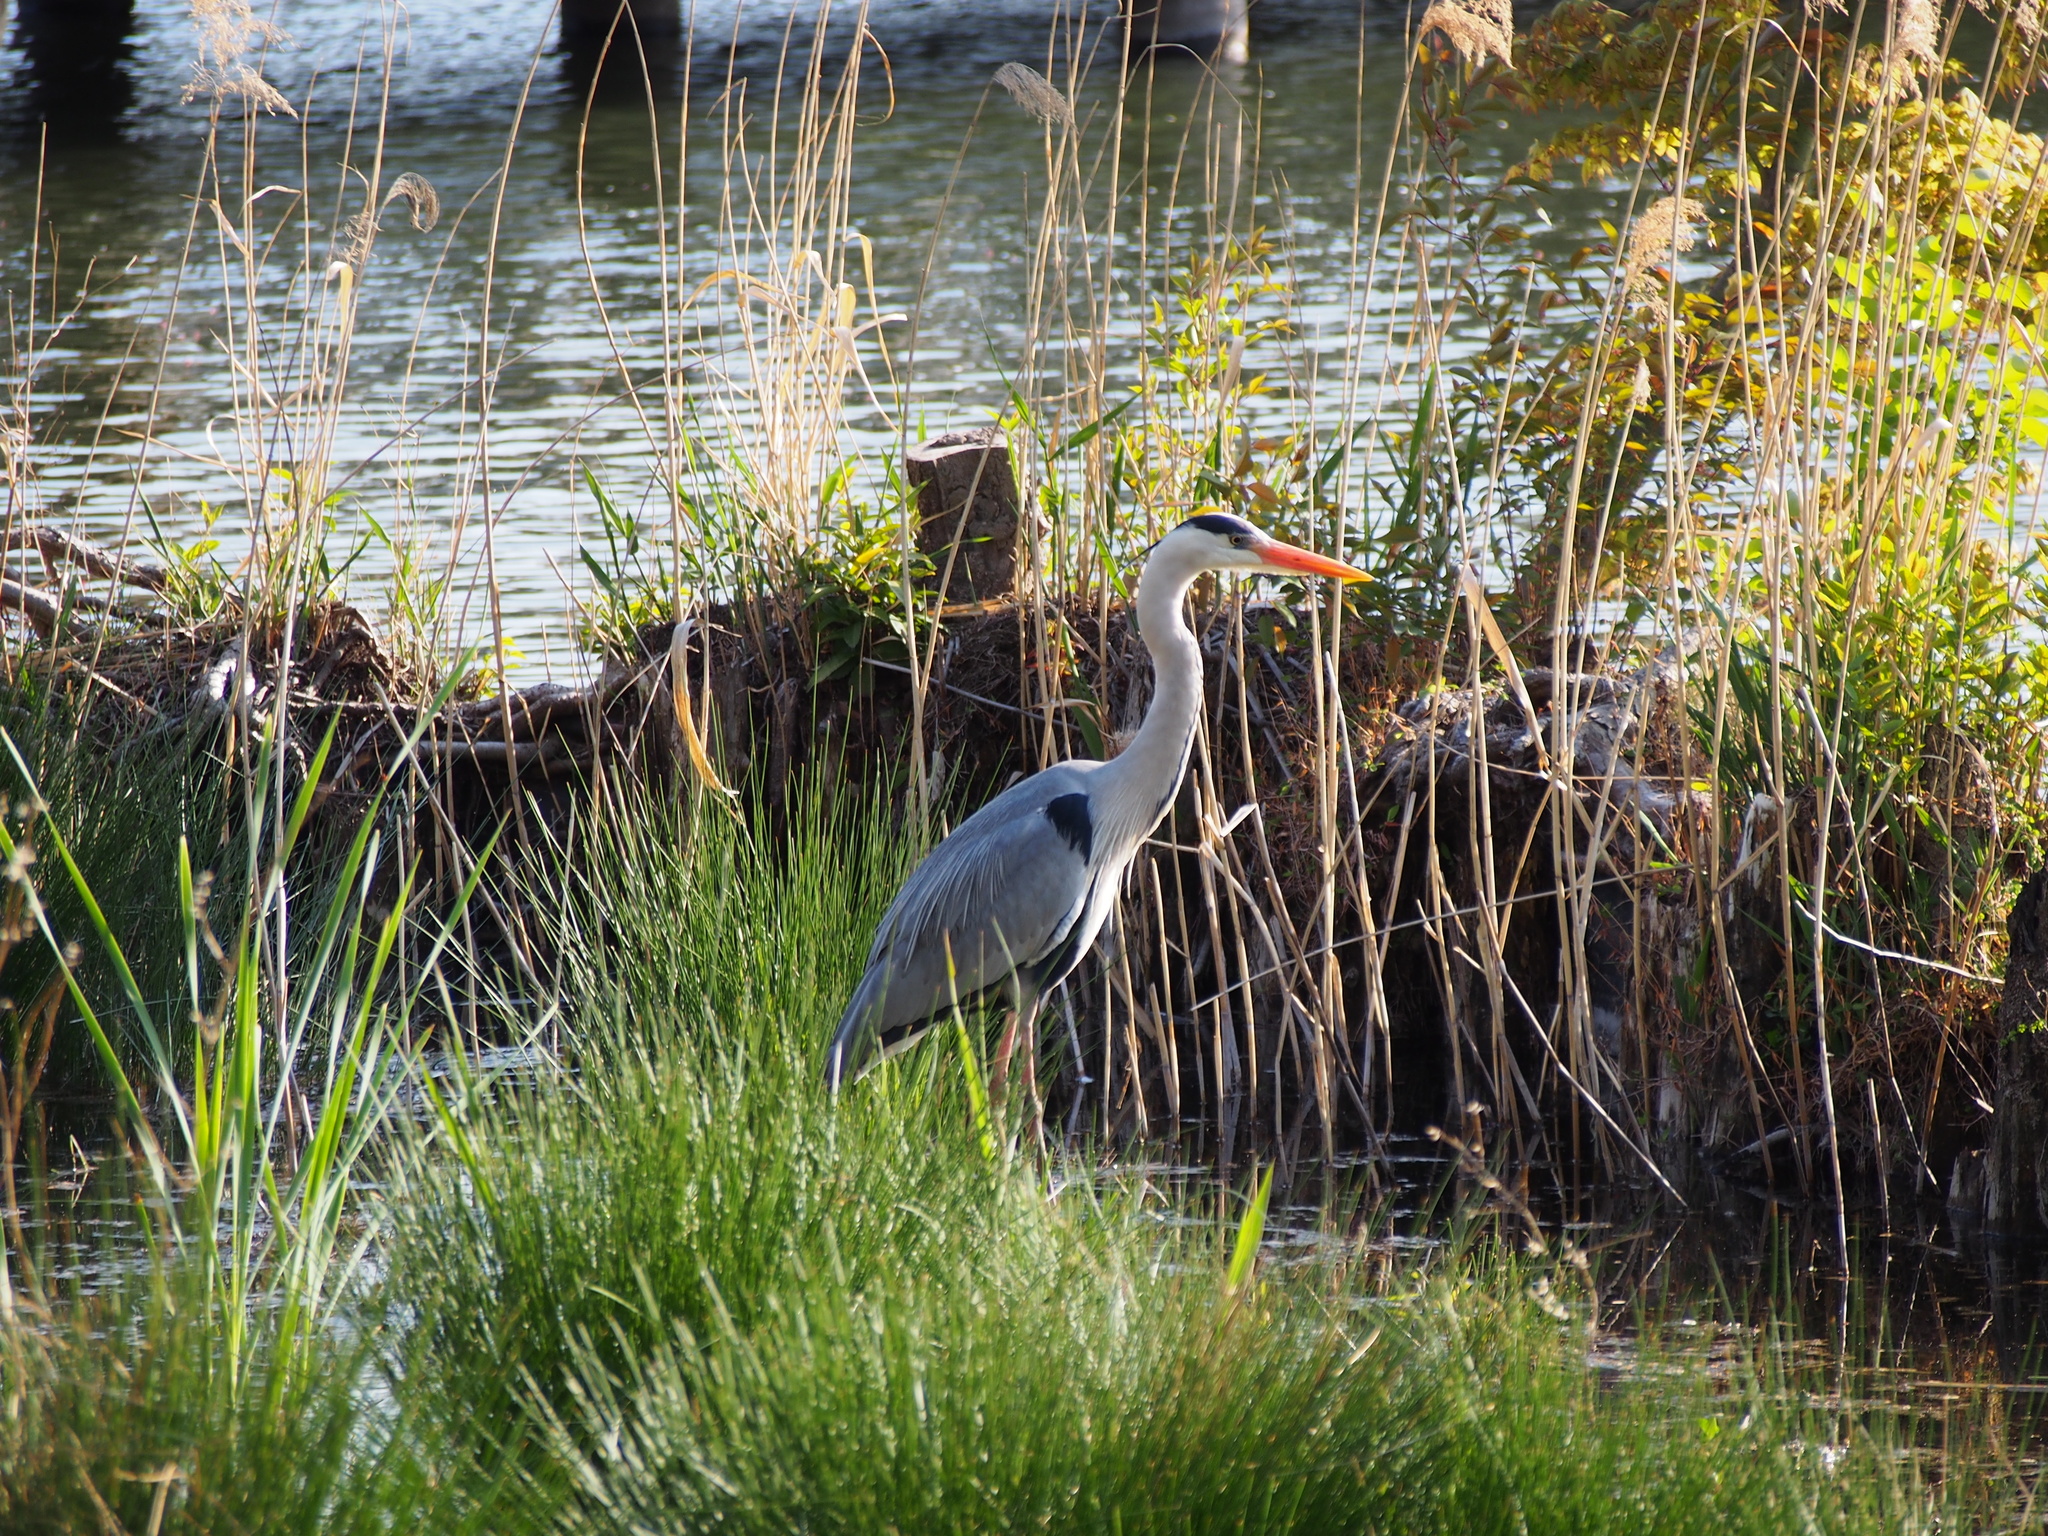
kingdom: Animalia
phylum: Chordata
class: Aves
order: Pelecaniformes
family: Ardeidae
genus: Ardea
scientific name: Ardea cinerea
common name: Grey heron
